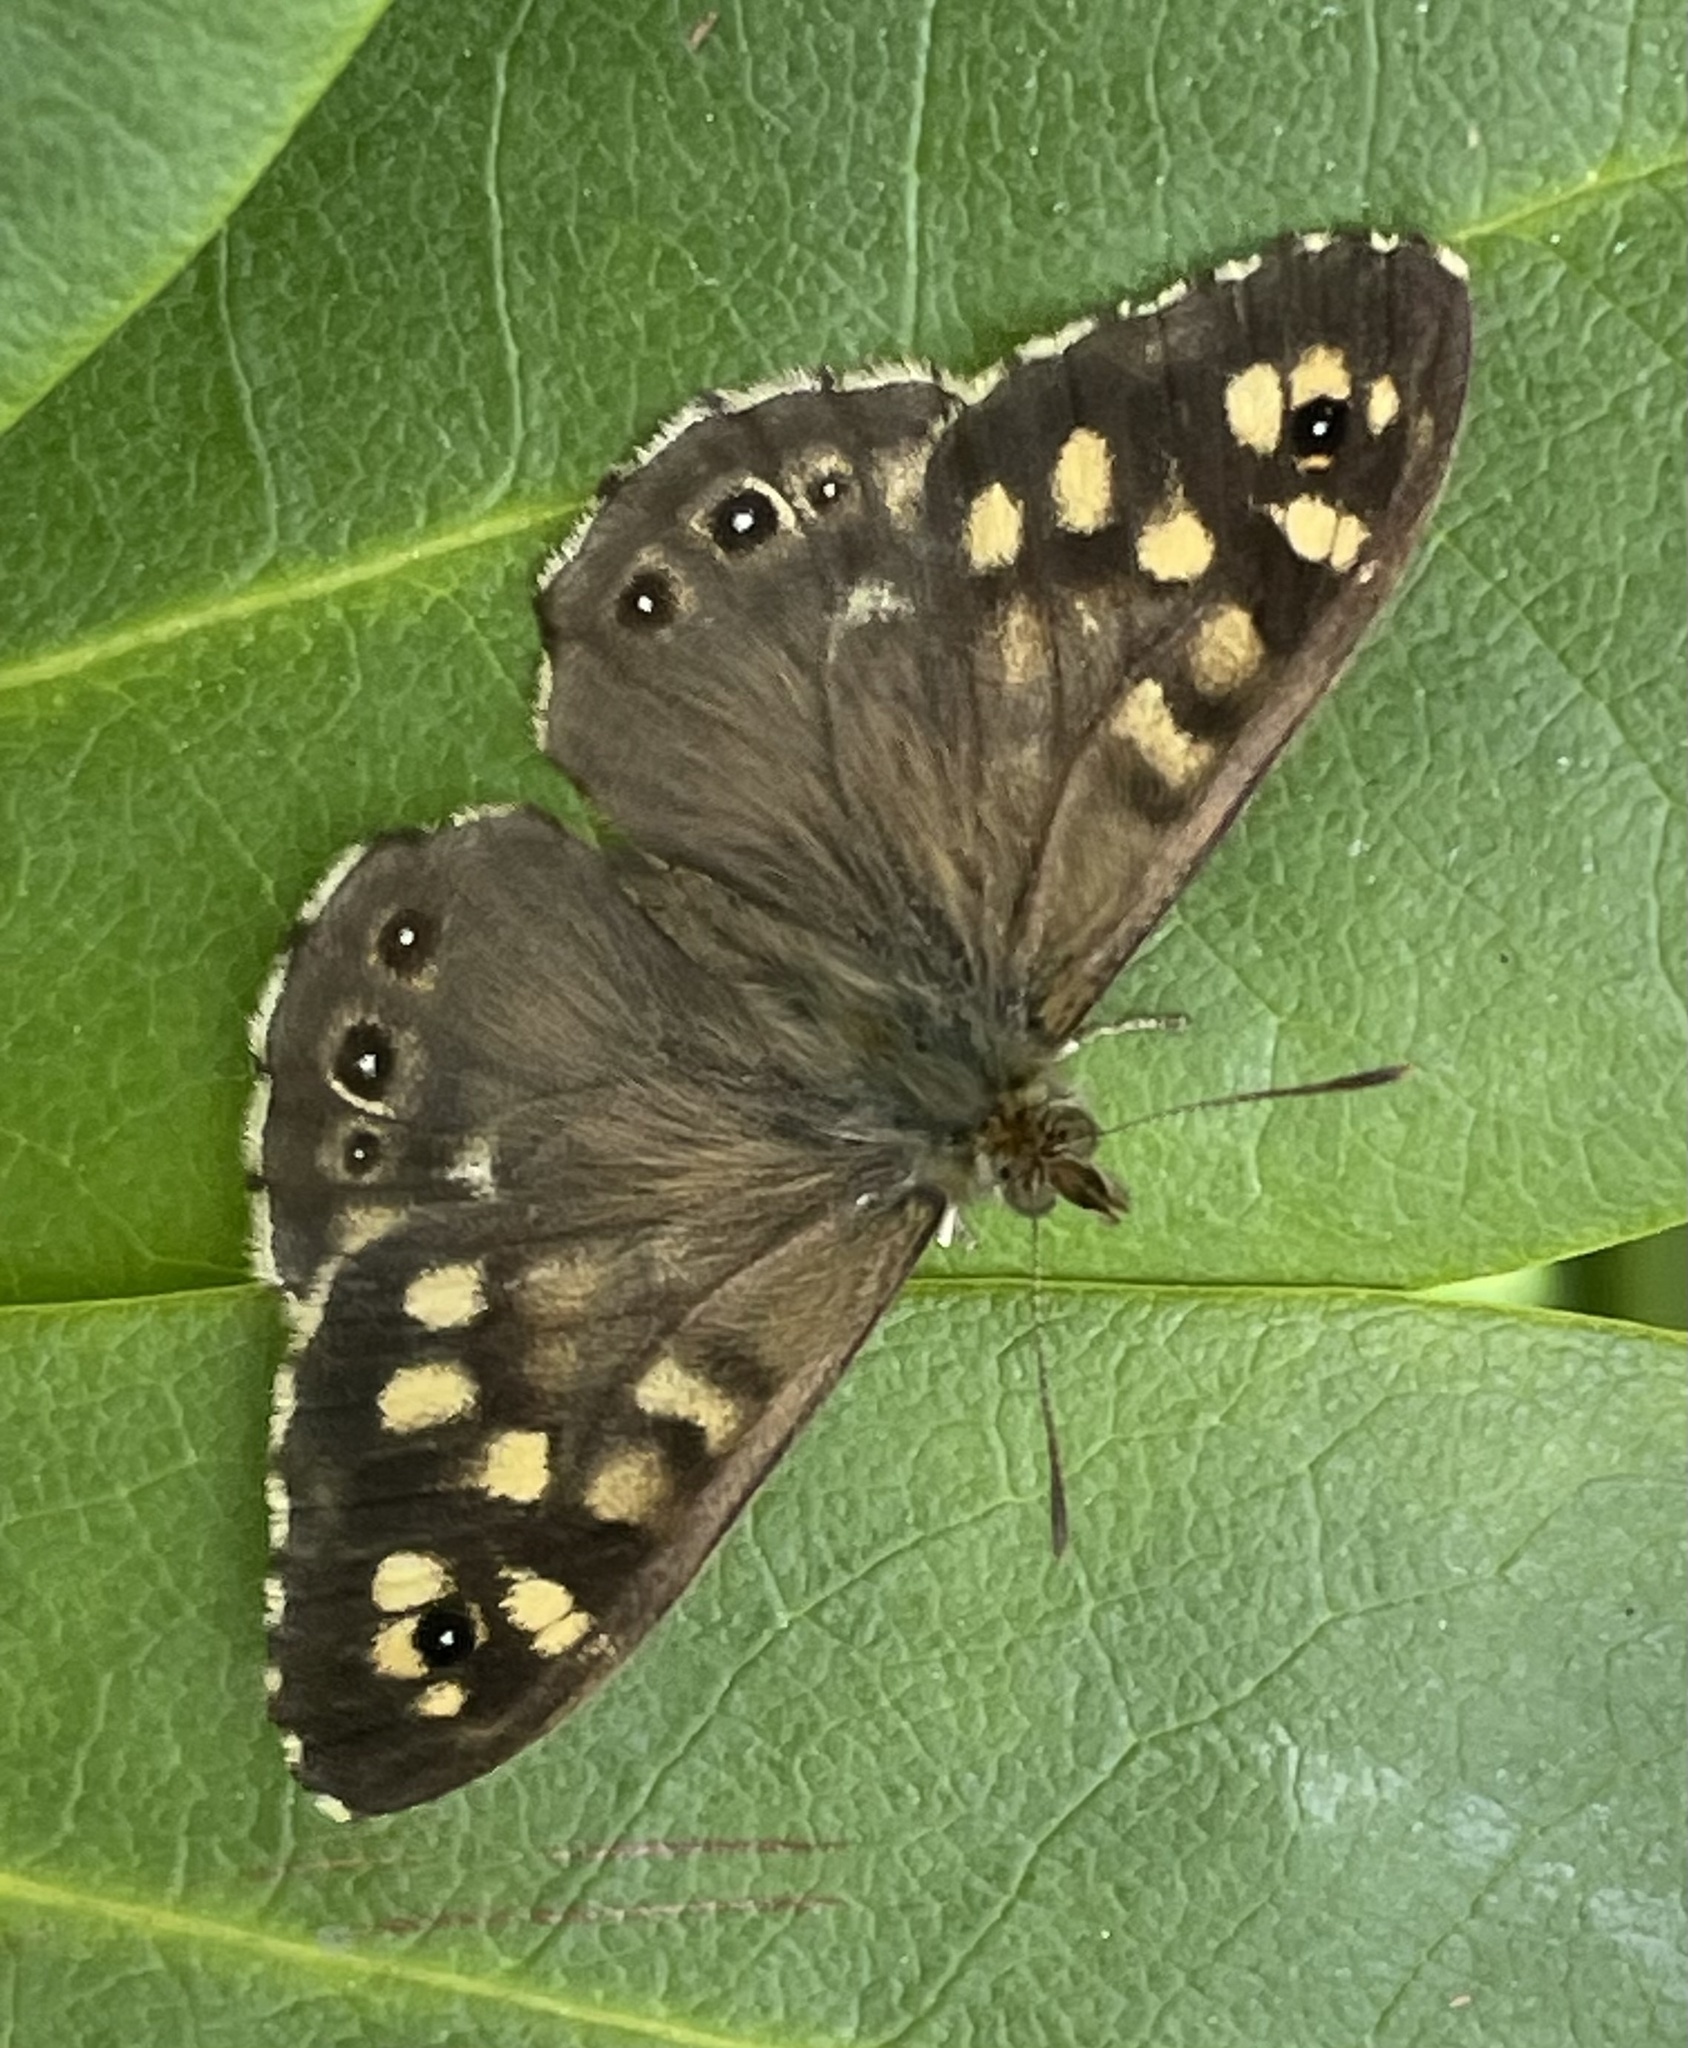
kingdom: Animalia
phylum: Arthropoda
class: Insecta
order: Lepidoptera
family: Nymphalidae
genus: Pararge
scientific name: Pararge aegeria
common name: Speckled wood
